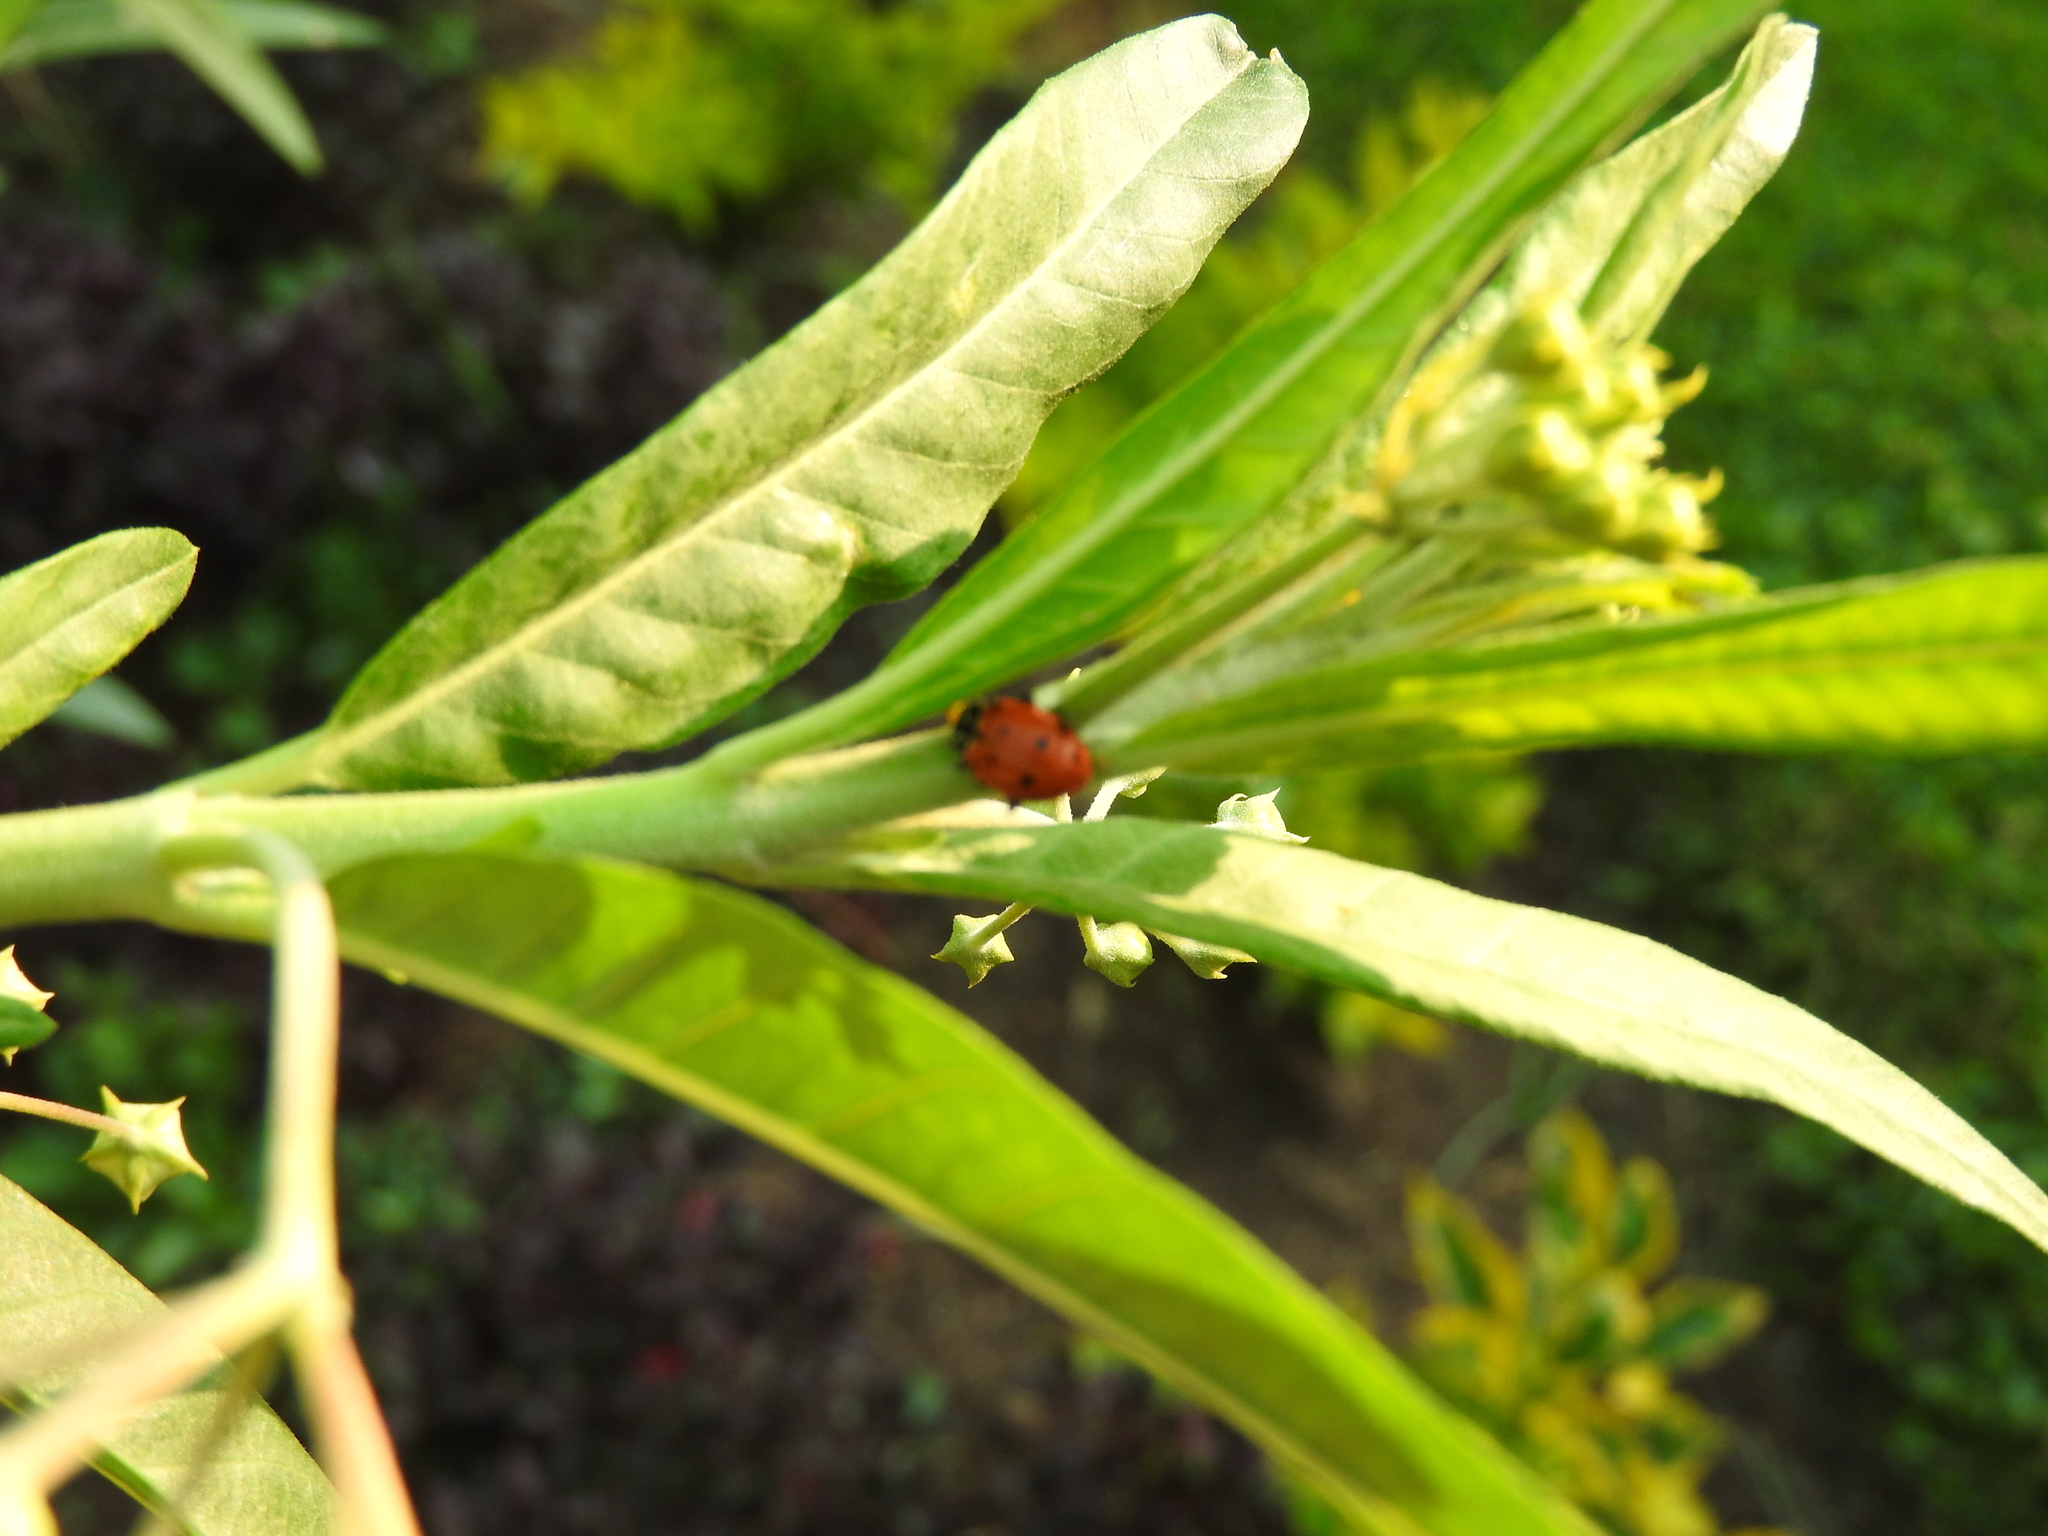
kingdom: Animalia
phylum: Arthropoda
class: Insecta
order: Coleoptera
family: Coccinellidae
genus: Hippodamia
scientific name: Hippodamia convergens
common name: Convergent lady beetle
